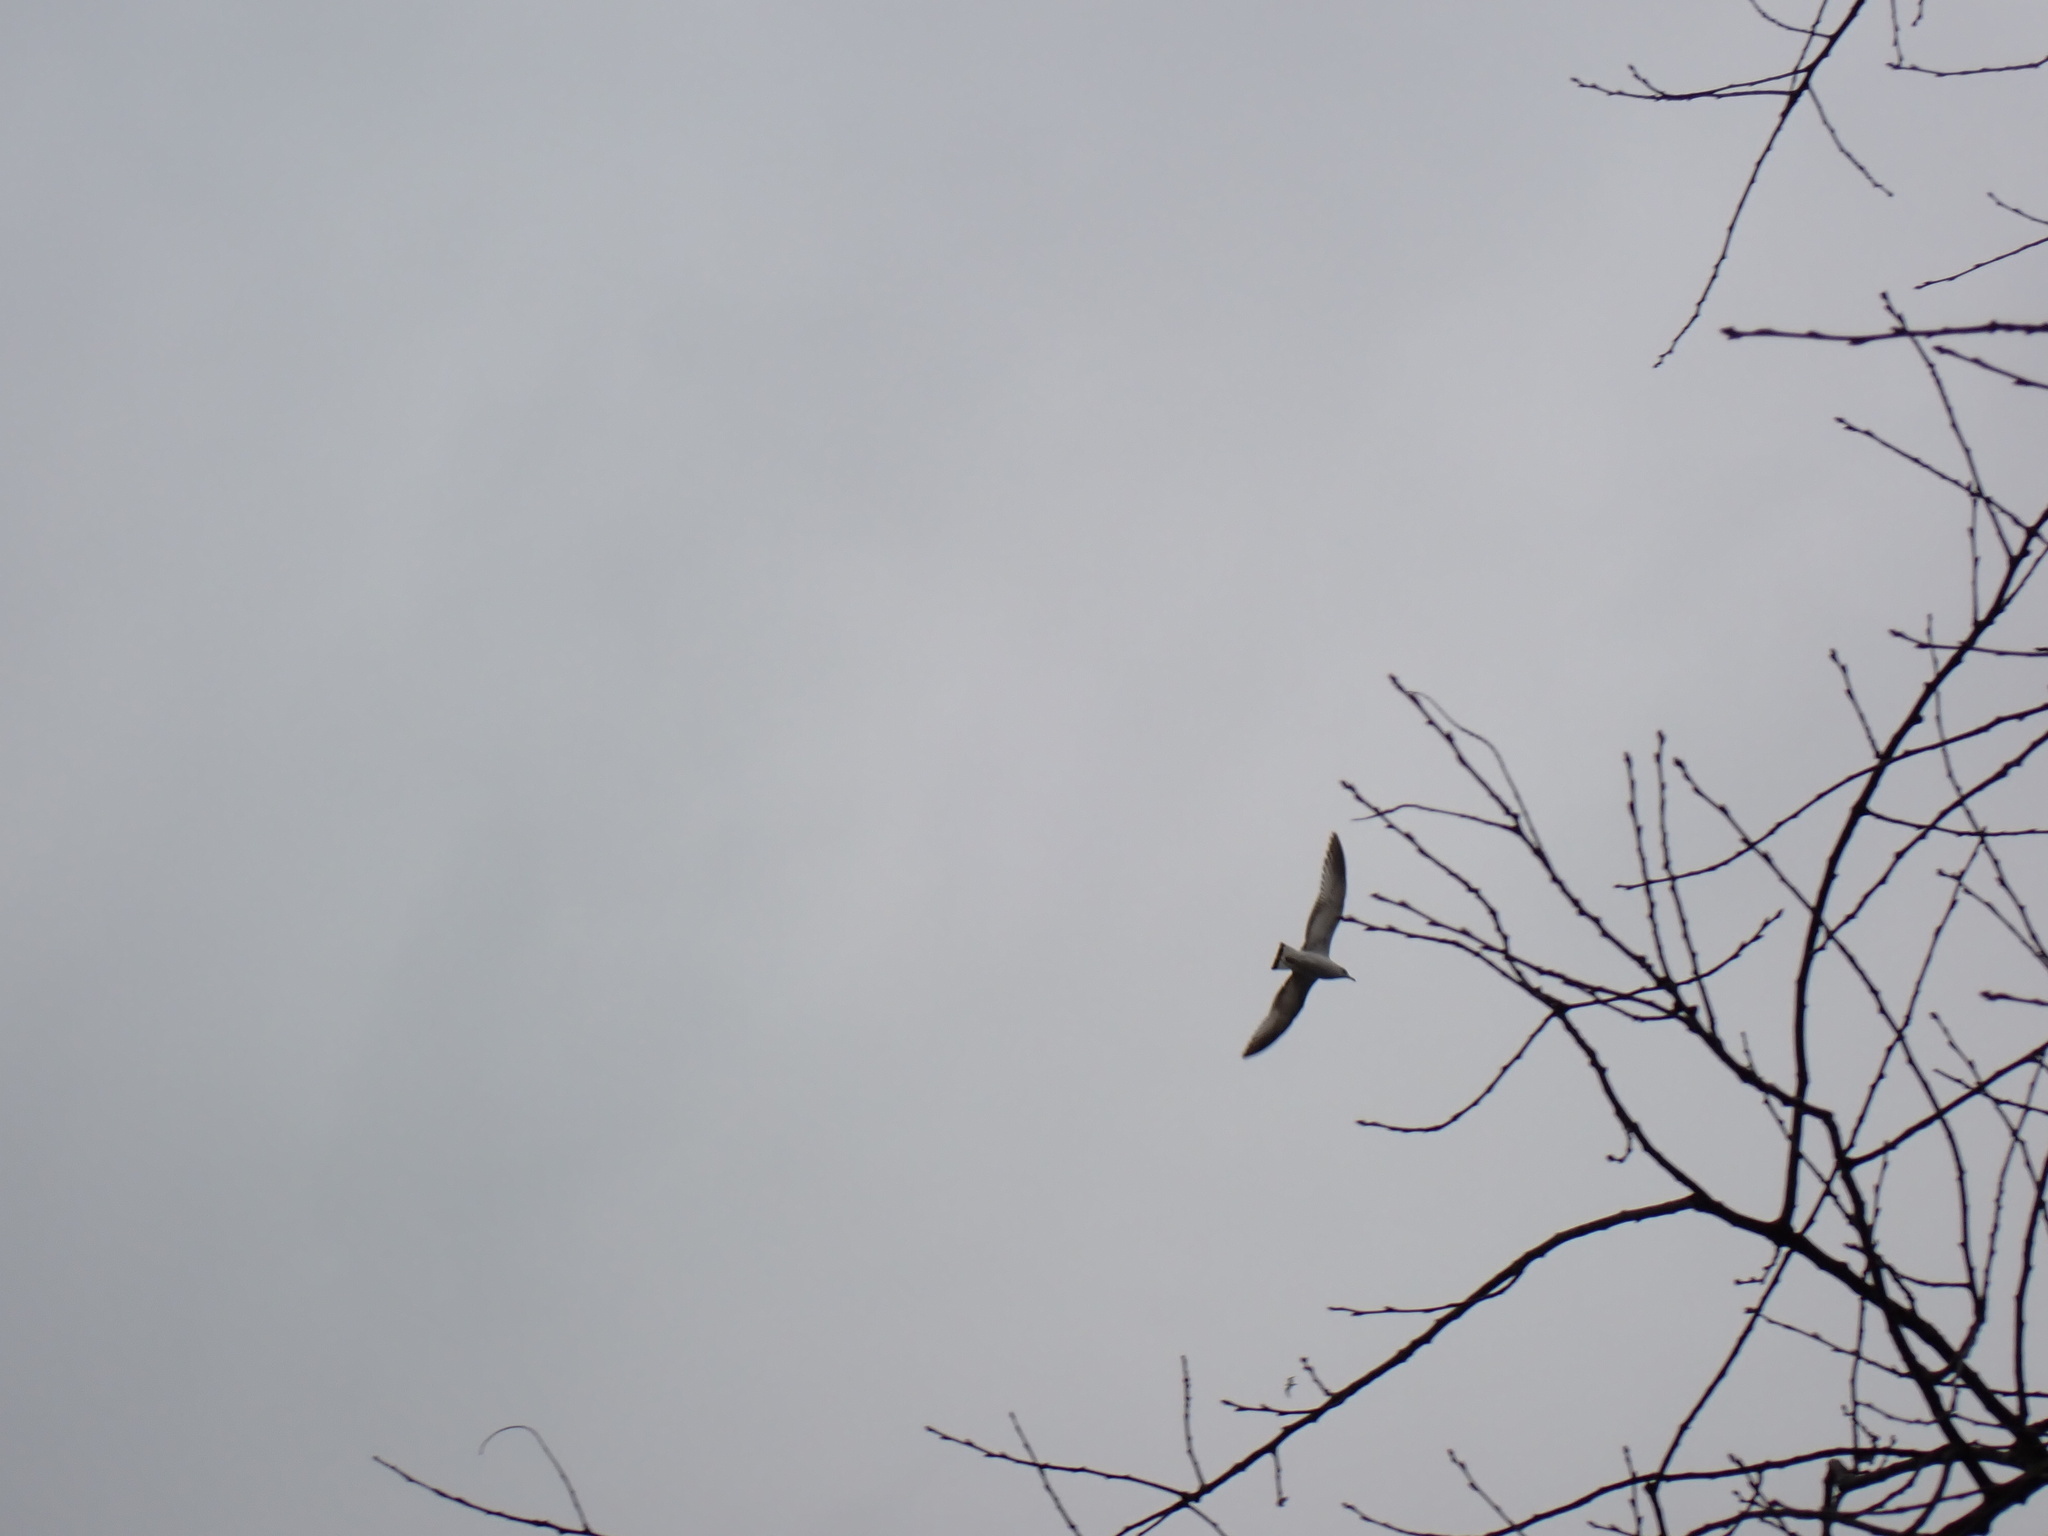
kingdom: Animalia
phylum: Chordata
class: Aves
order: Charadriiformes
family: Laridae
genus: Larus
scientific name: Larus delawarensis
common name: Ring-billed gull
